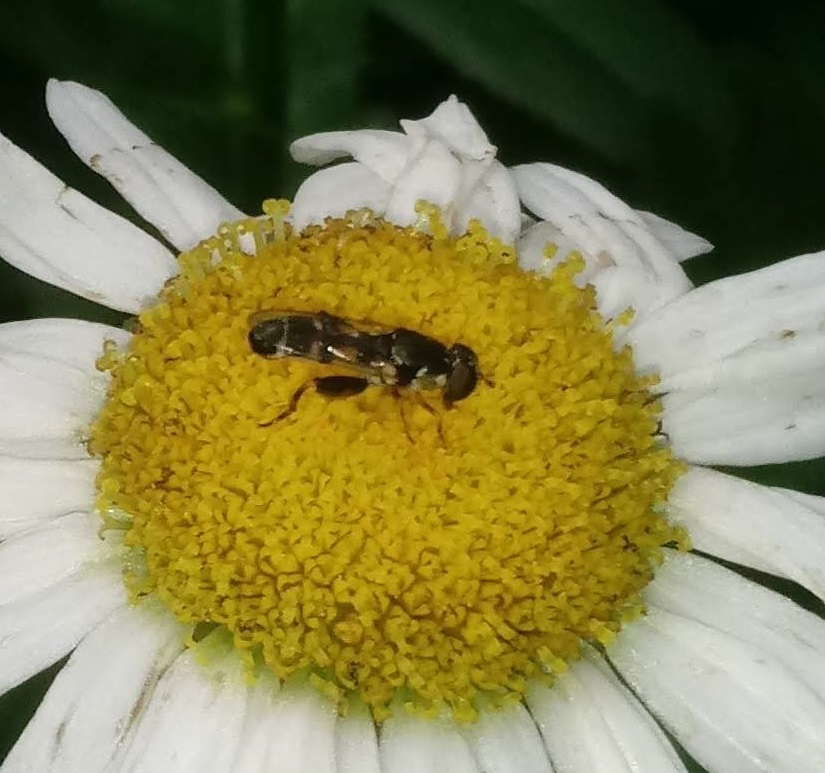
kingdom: Animalia
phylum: Arthropoda
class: Insecta
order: Diptera
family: Syrphidae
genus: Syritta
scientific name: Syritta pipiens
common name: Hover fly
